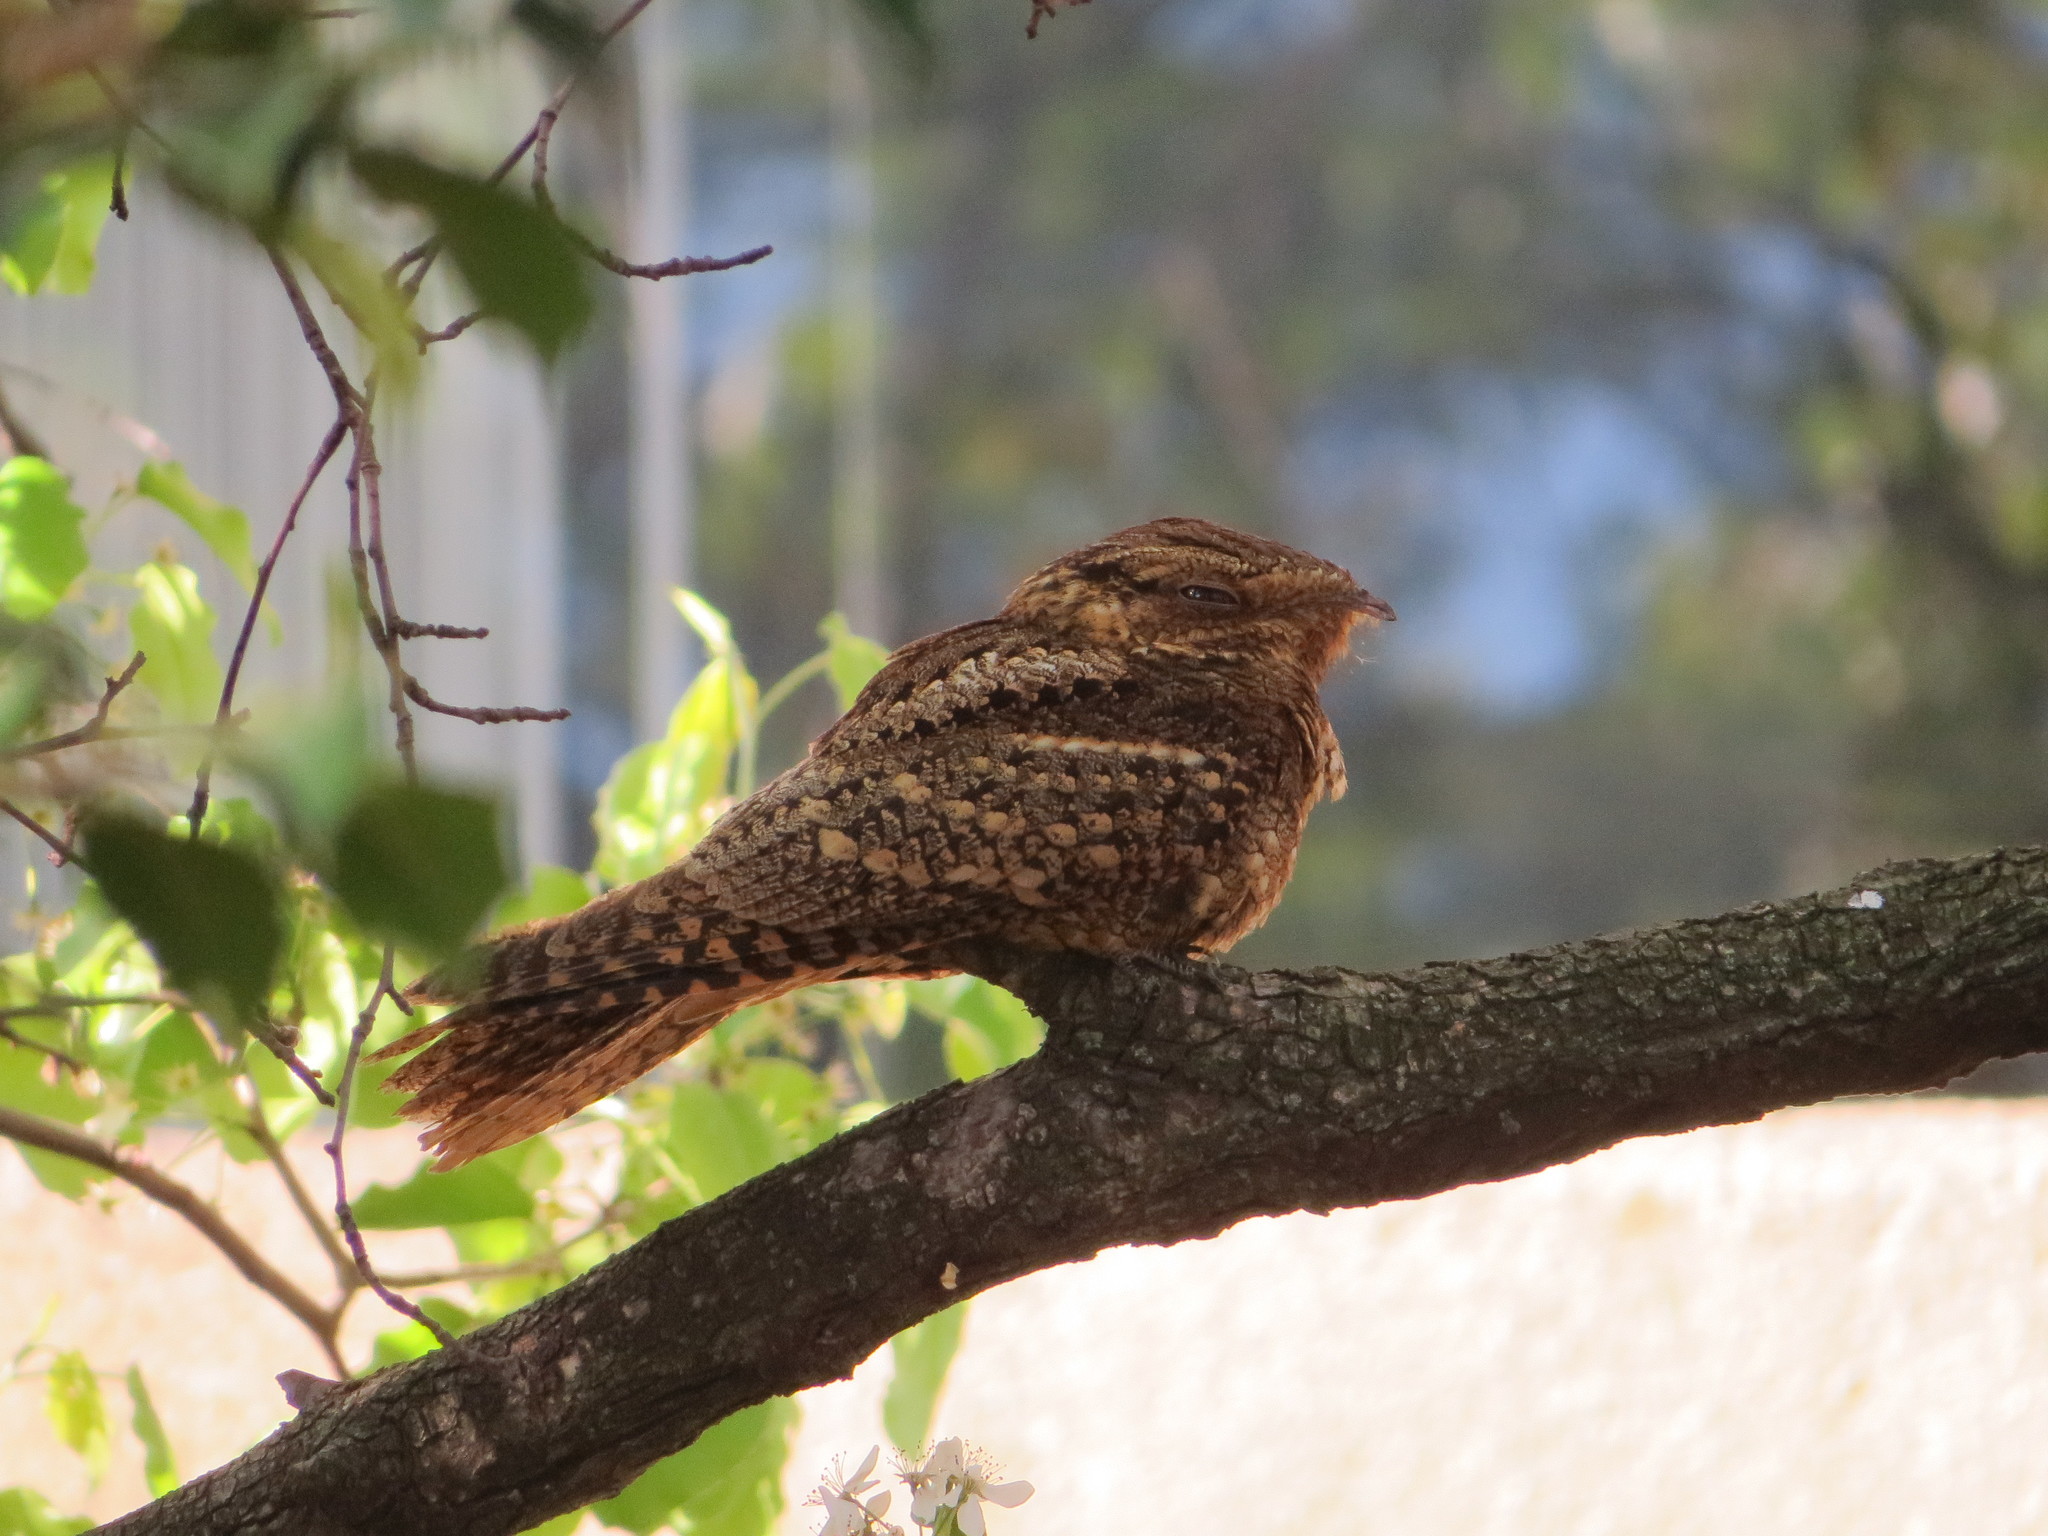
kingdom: Animalia
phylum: Chordata
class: Aves
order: Caprimulgiformes
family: Caprimulgidae
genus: Antrostomus
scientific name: Antrostomus carolinensis
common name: Chuck-will's-widow
